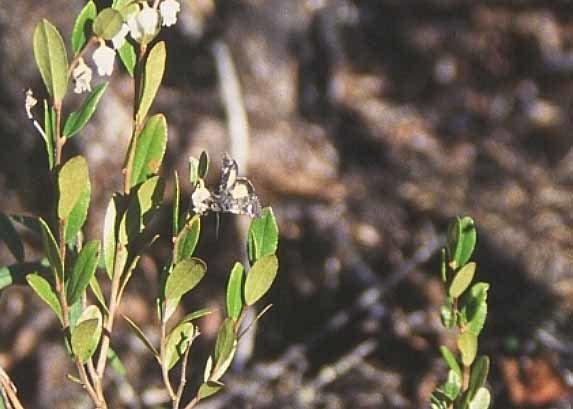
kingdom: Animalia
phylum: Arthropoda
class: Insecta
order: Lepidoptera
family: Noctuidae
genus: Coranarta
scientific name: Coranarta luteola
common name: Small dark yellow underwing
